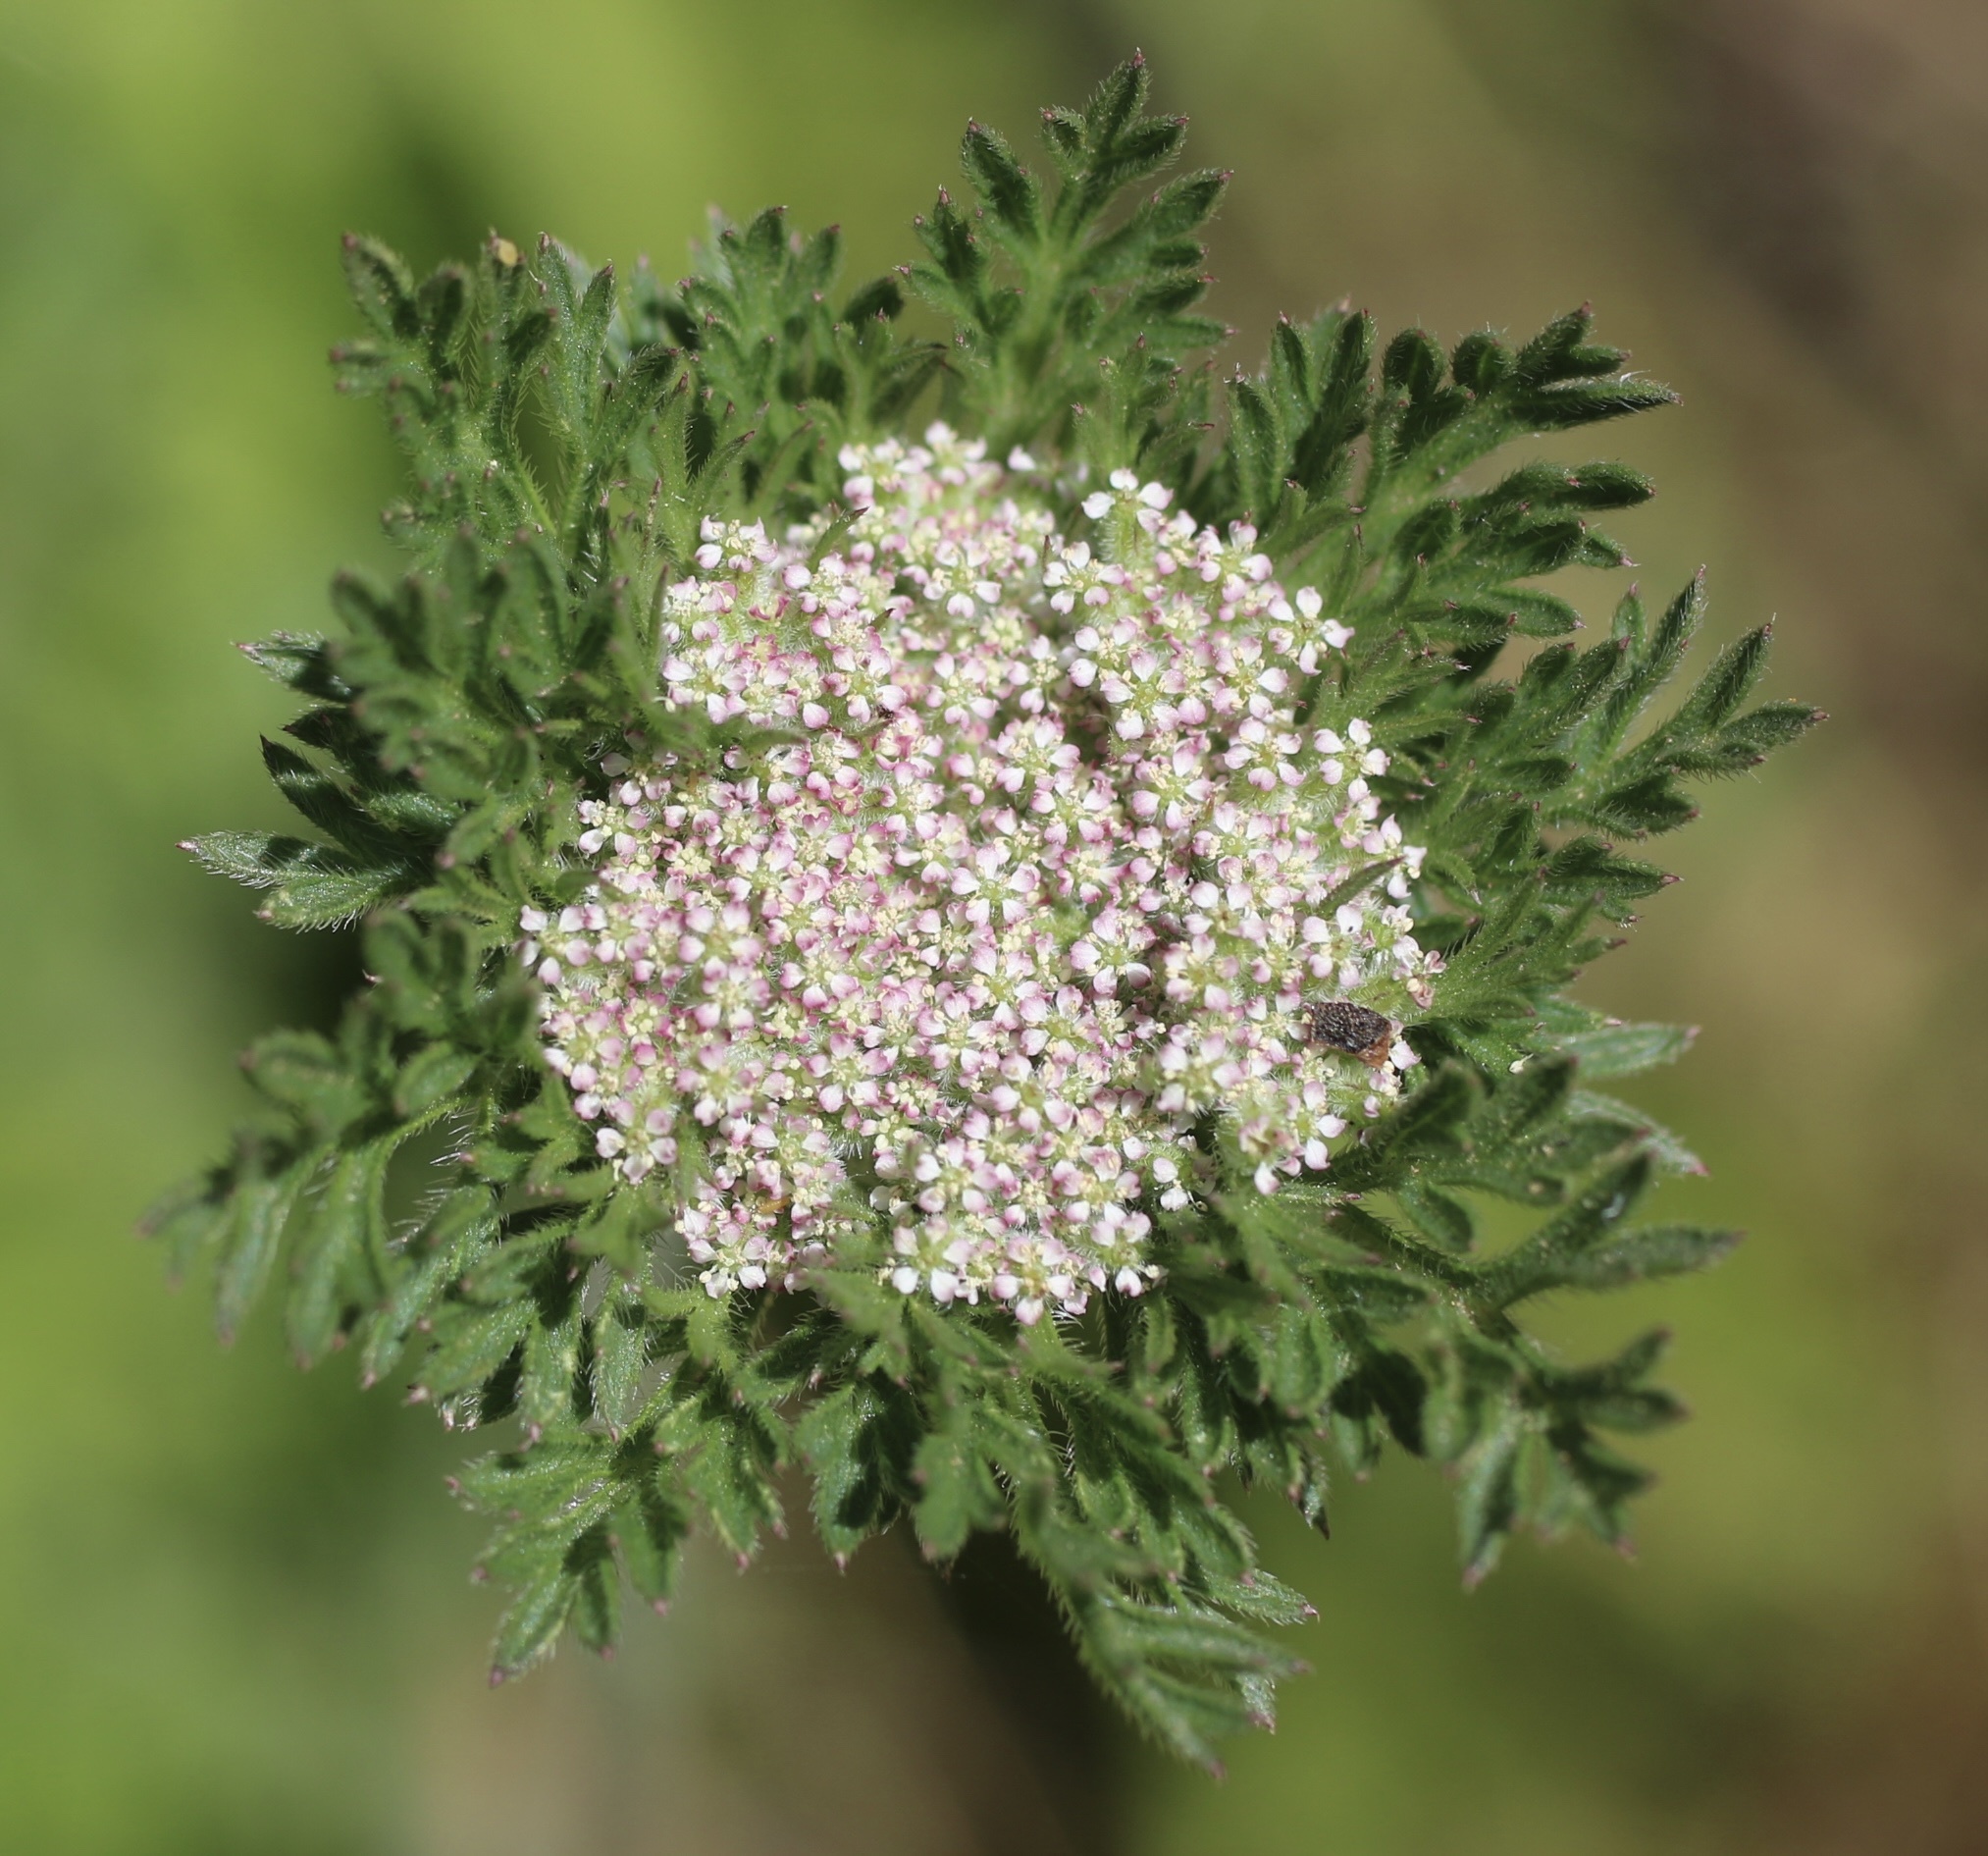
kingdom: Plantae
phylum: Tracheophyta
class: Magnoliopsida
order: Apiales
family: Apiaceae
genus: Daucus
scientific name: Daucus pusillus
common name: Southwest wild carrot
